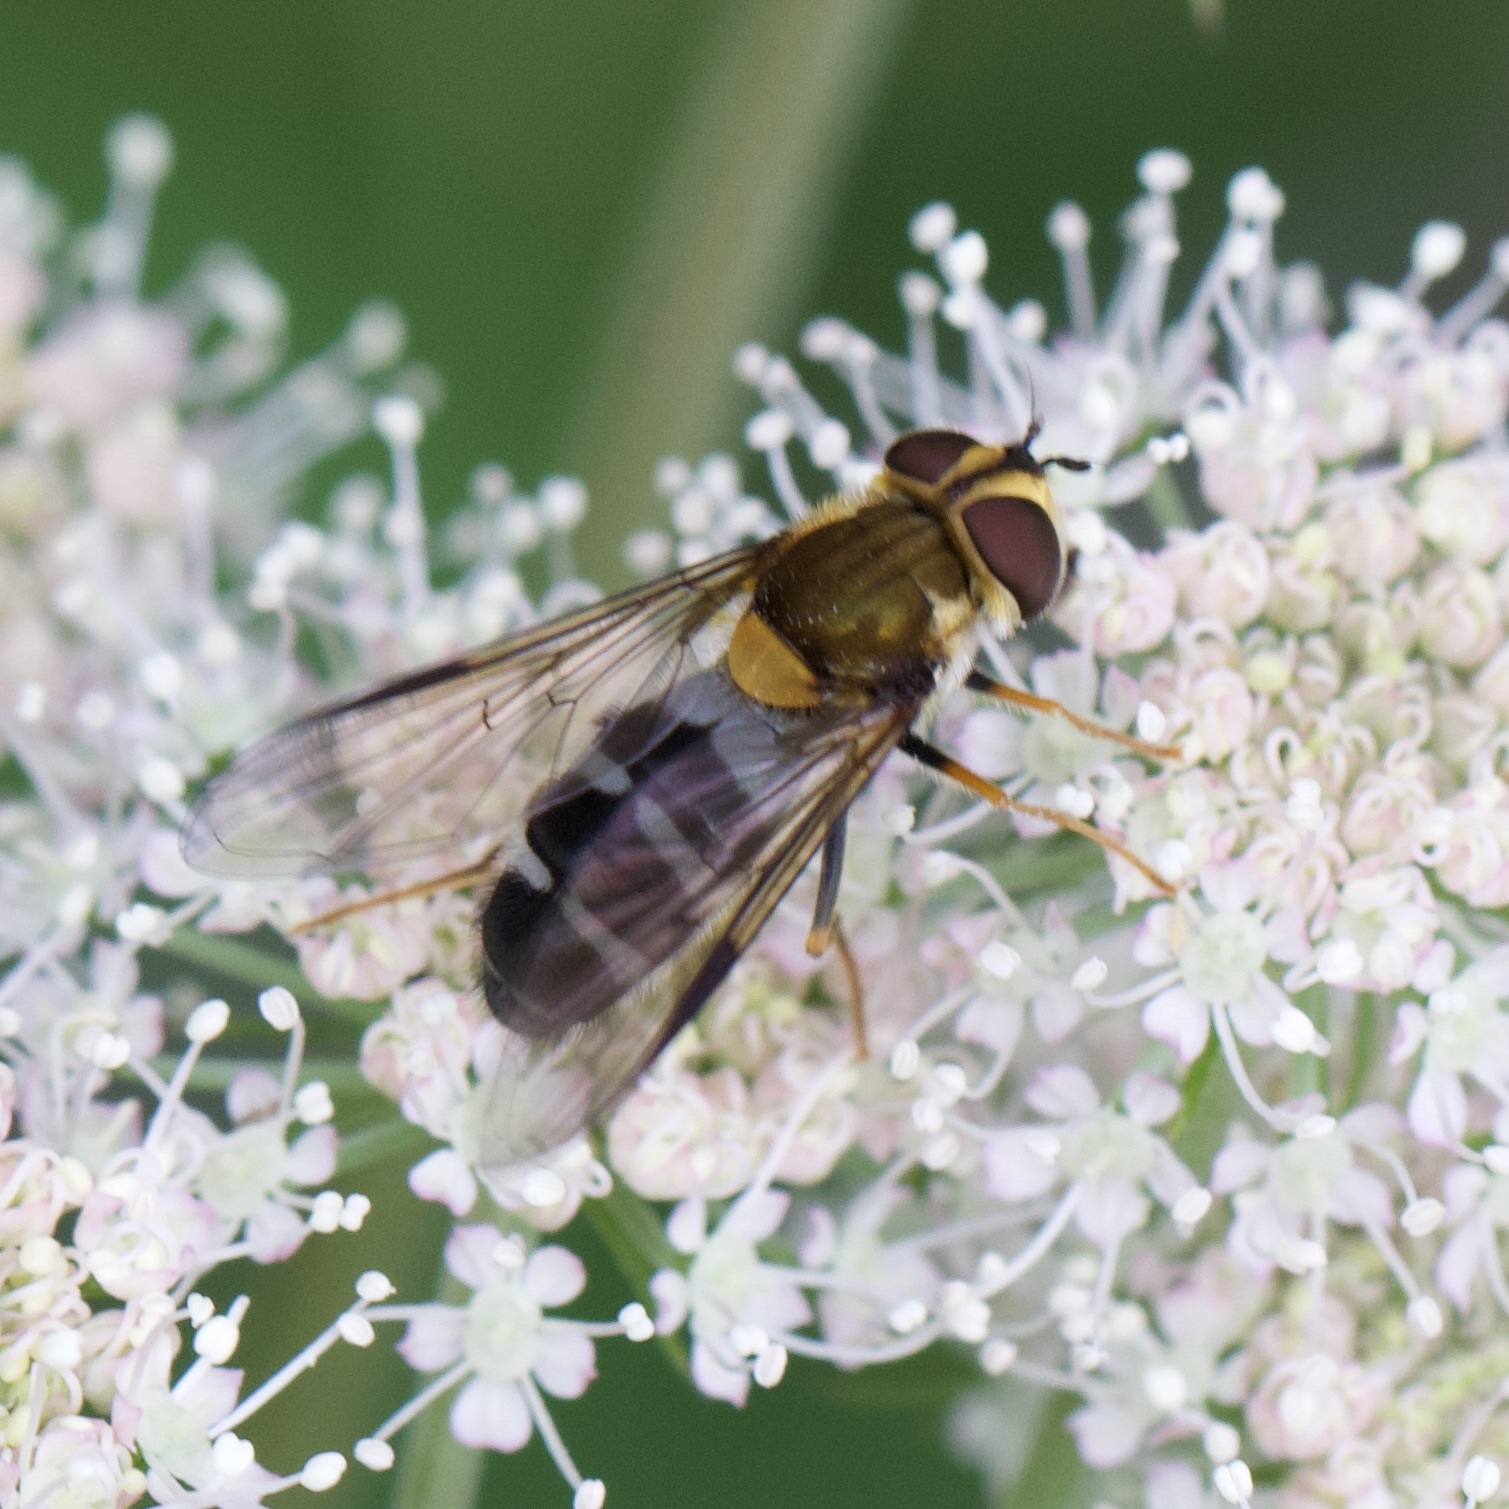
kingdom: Animalia
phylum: Arthropoda
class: Insecta
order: Diptera
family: Syrphidae
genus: Leucozona
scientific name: Leucozona glaucia
